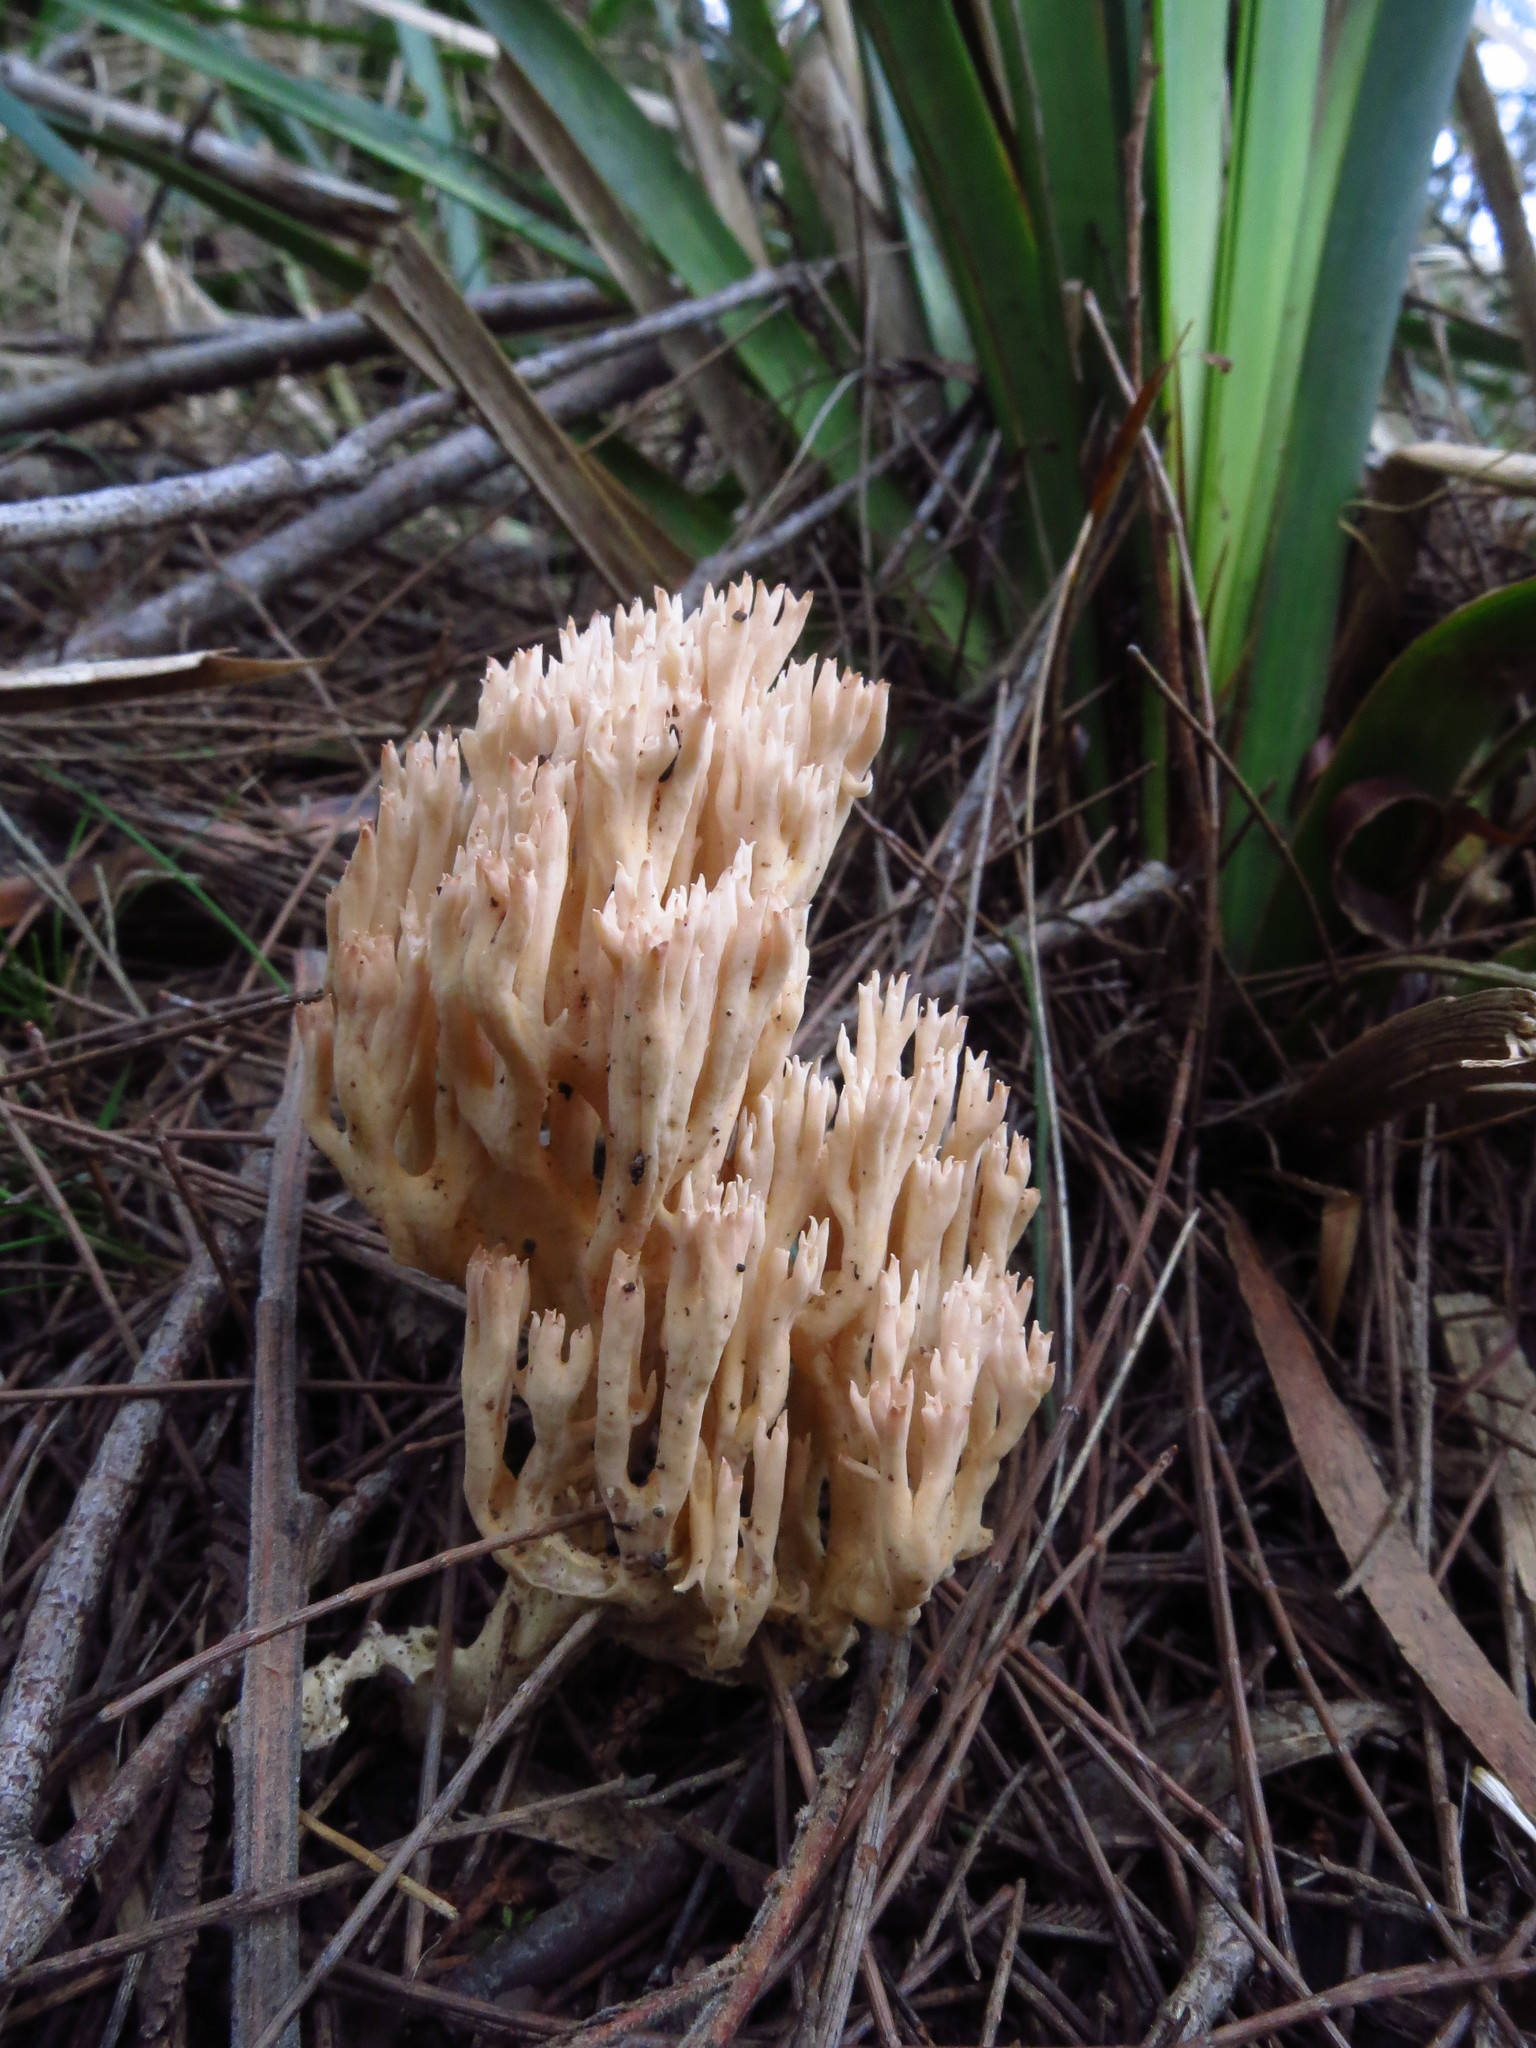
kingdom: Fungi
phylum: Basidiomycota
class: Agaricomycetes
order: Gomphales
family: Gomphaceae
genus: Ramaria
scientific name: Ramaria filicicola
